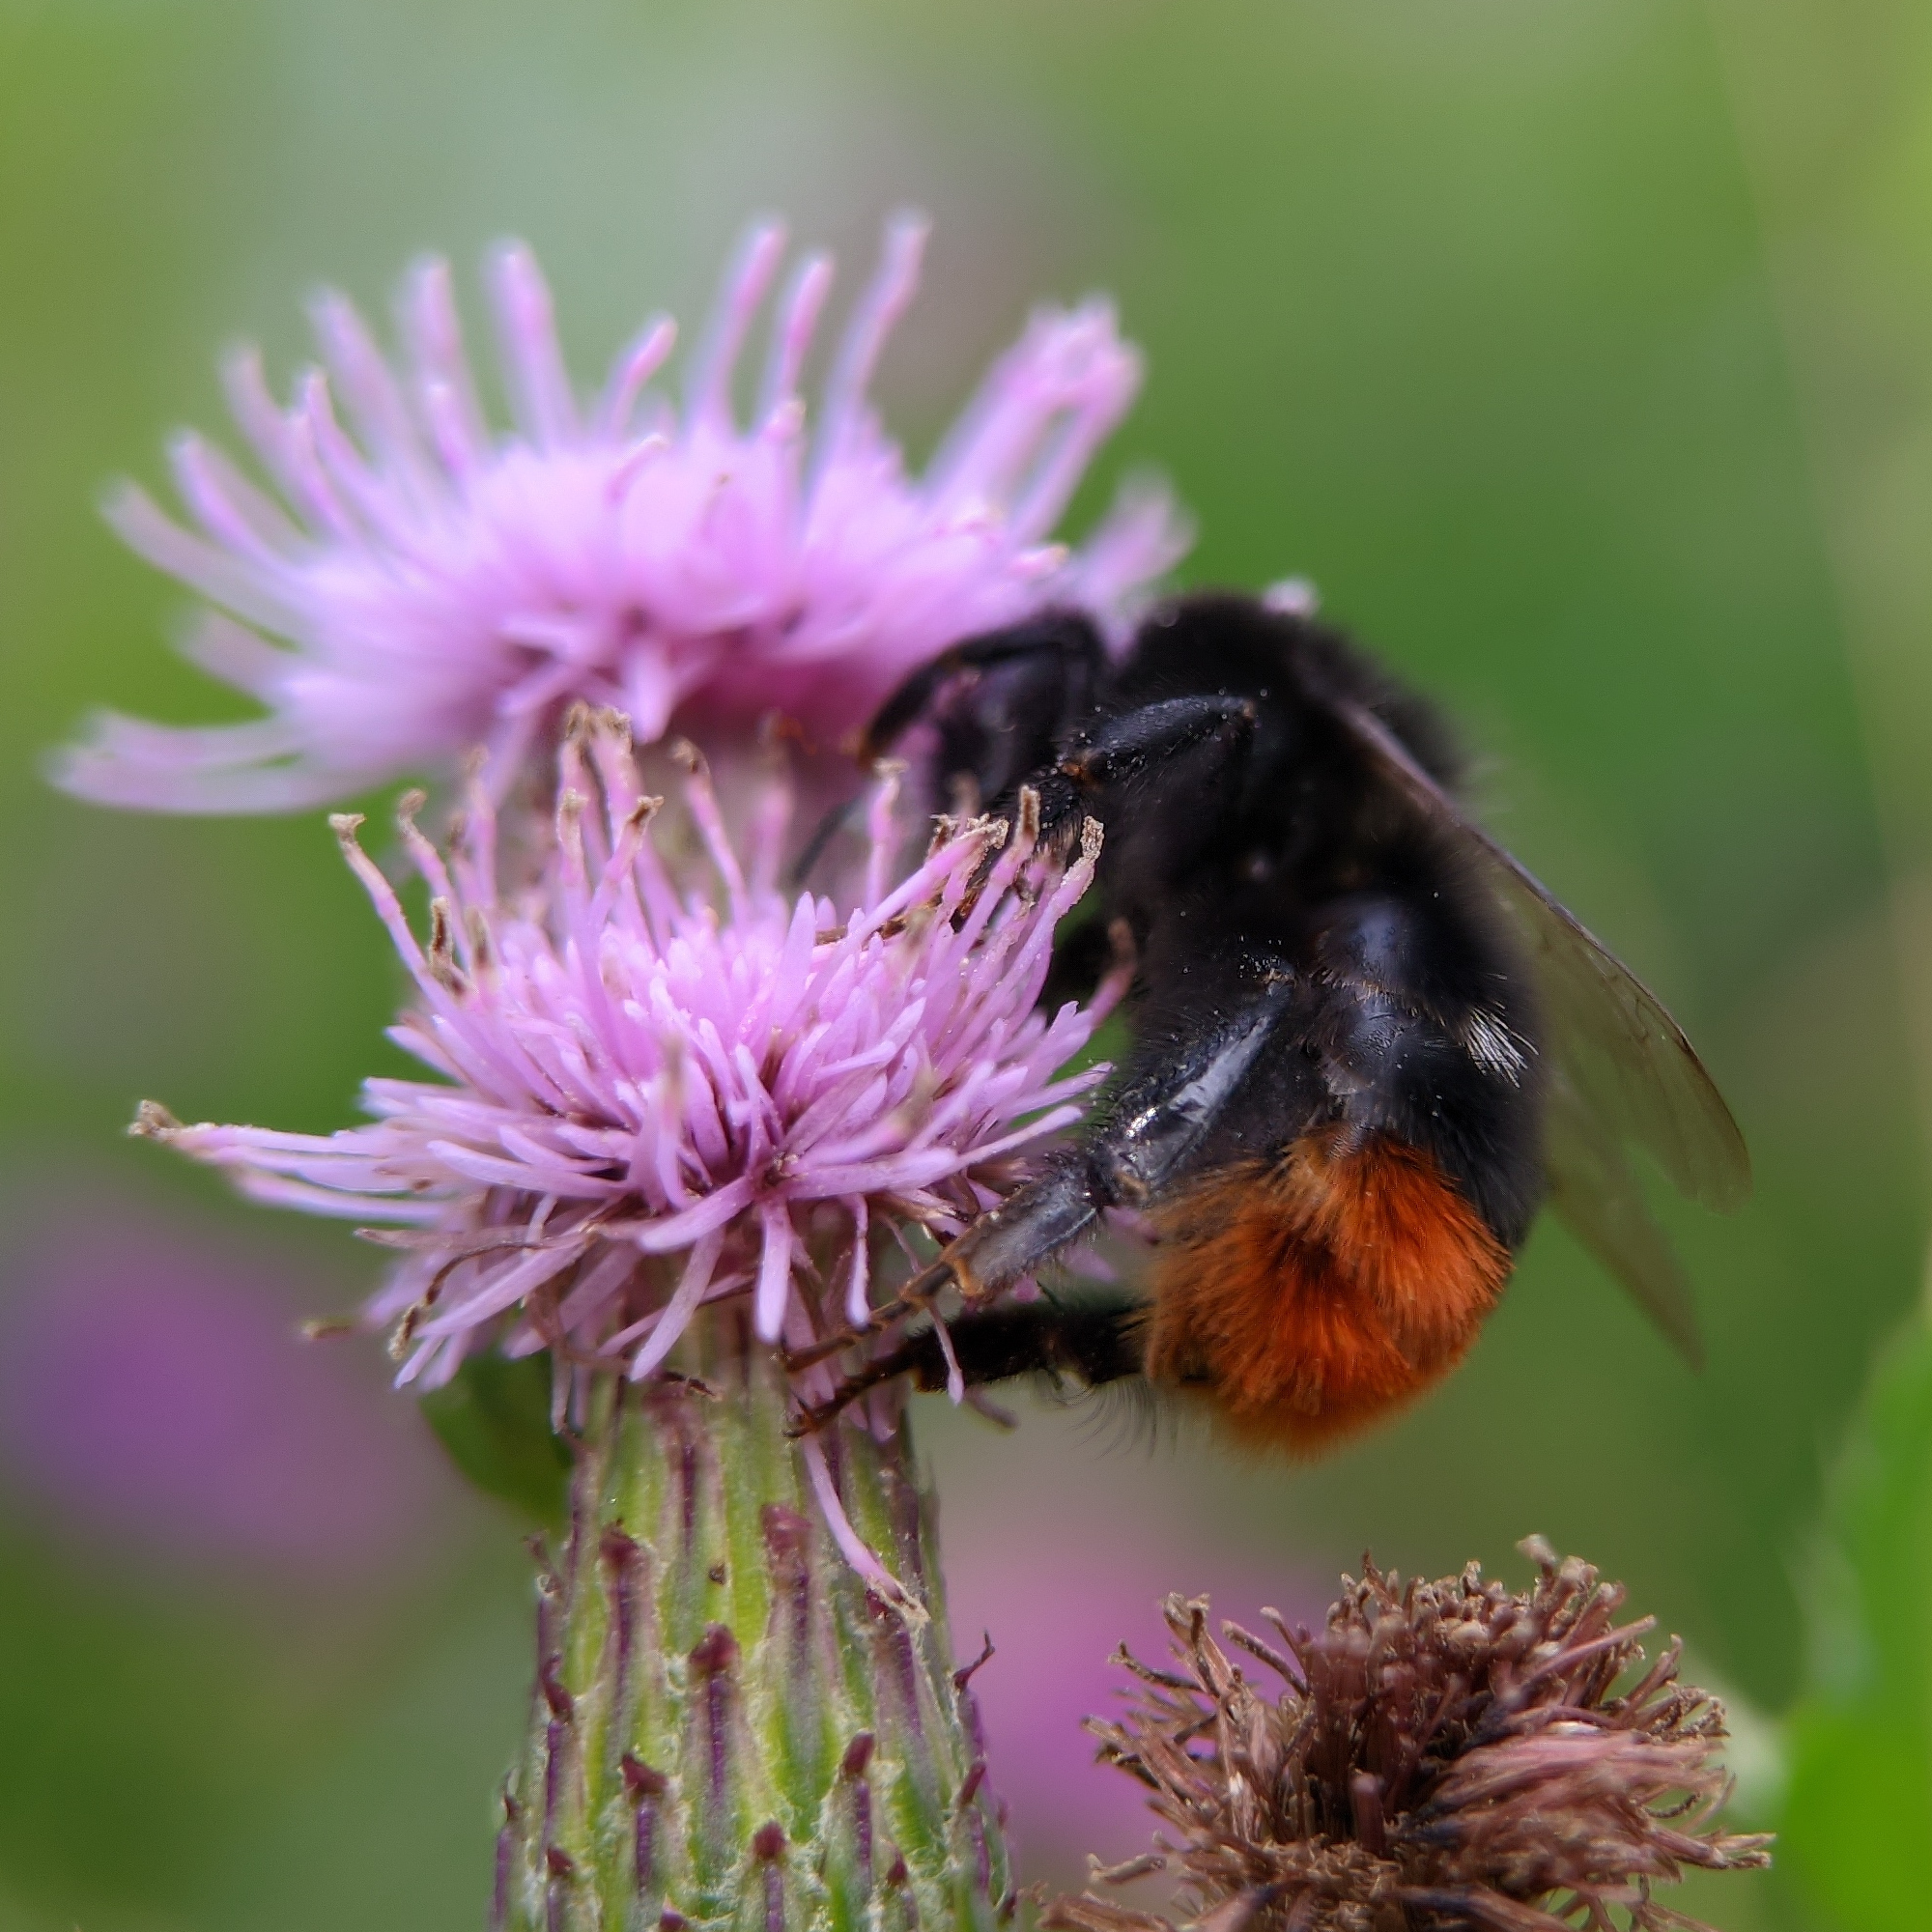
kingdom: Animalia
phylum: Arthropoda
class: Insecta
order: Hymenoptera
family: Apidae
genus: Bombus
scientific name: Bombus lapidarius
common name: Large red-tailed humble-bee
